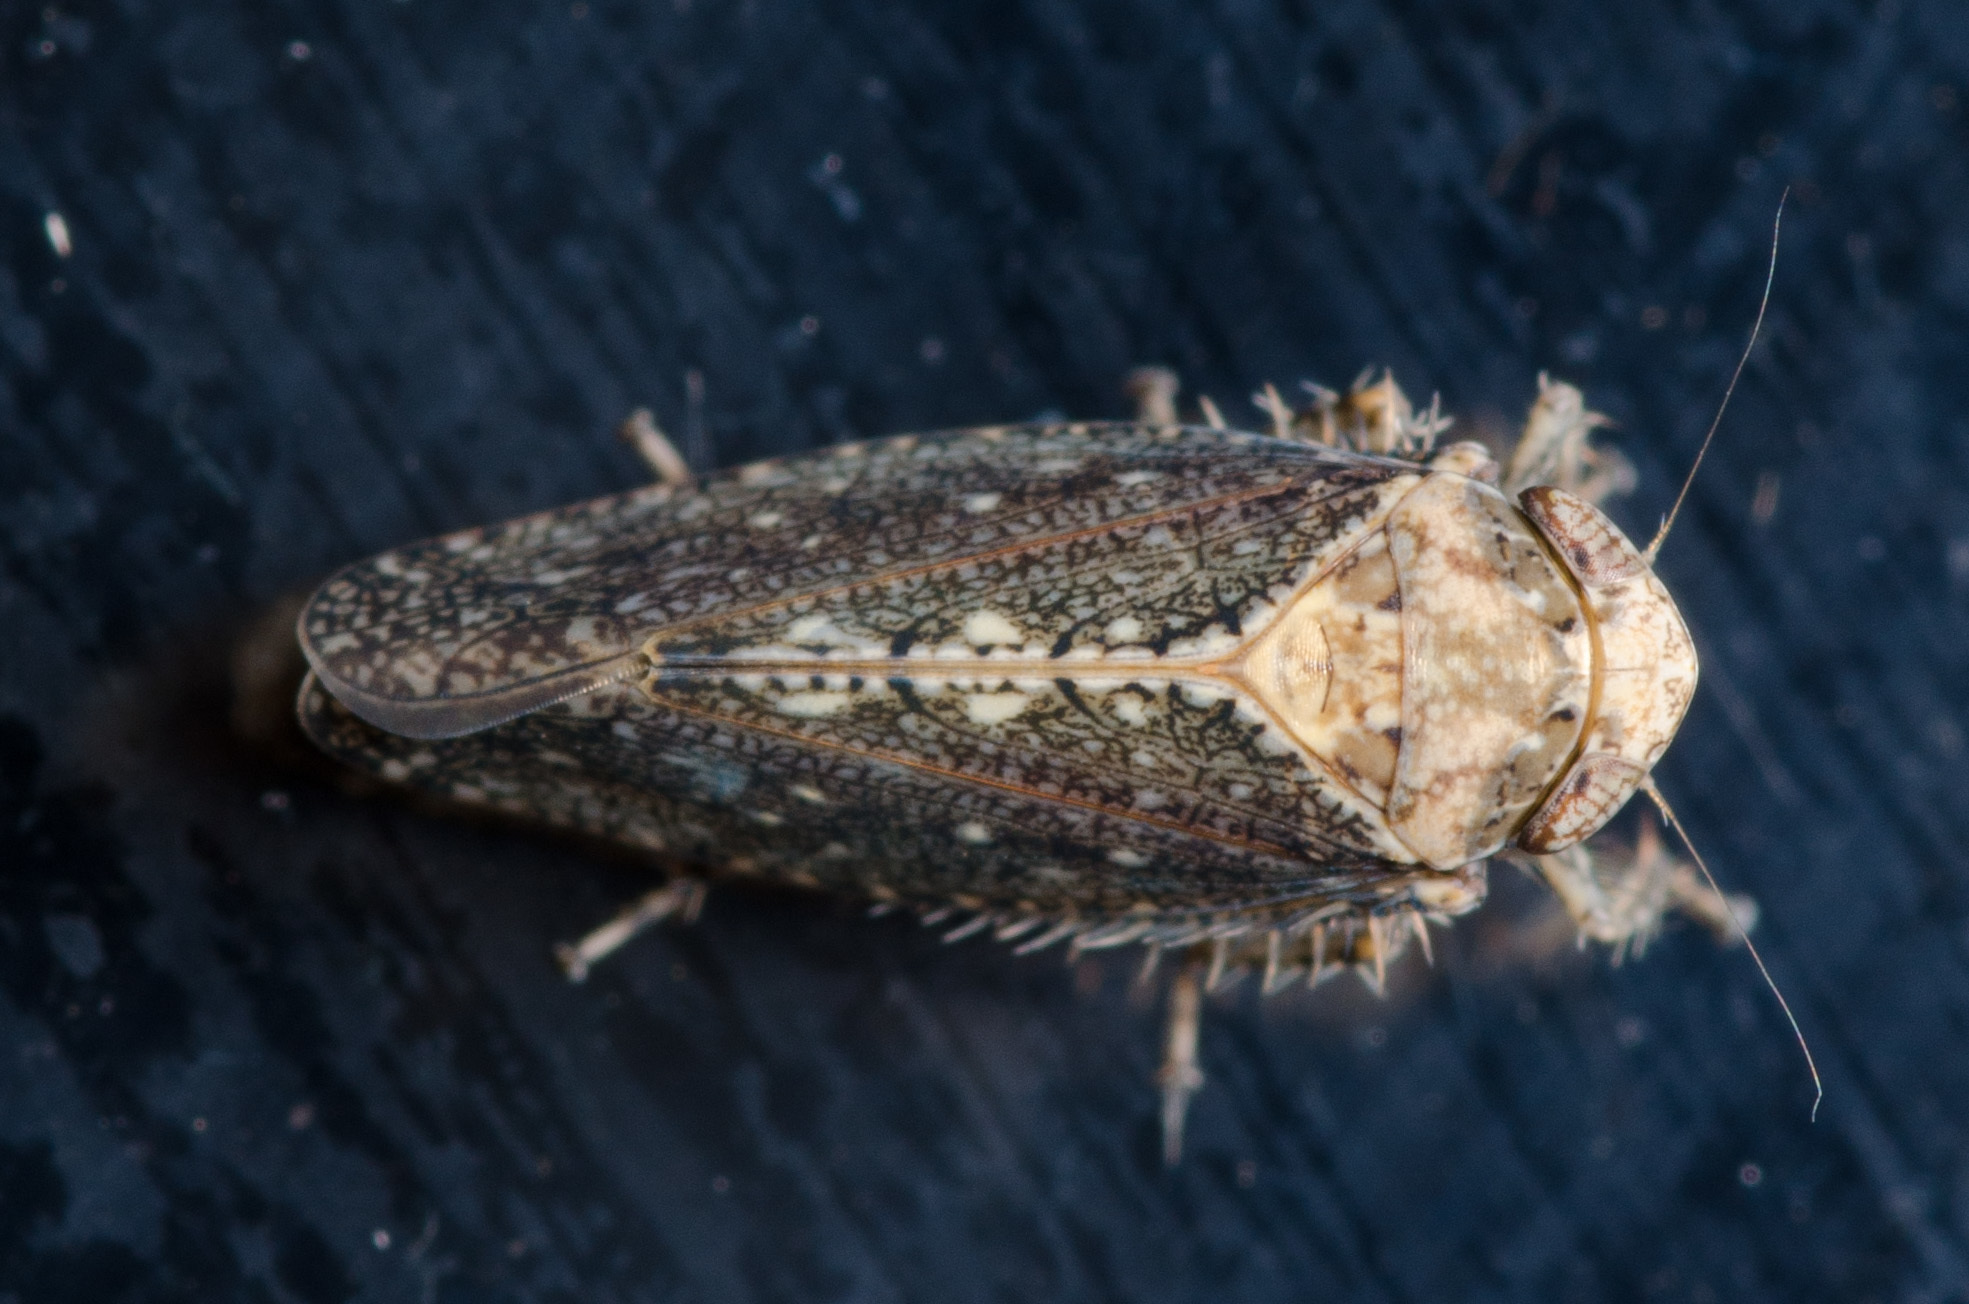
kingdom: Animalia
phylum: Arthropoda
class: Insecta
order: Hemiptera
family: Cicadellidae
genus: Excultanus
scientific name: Excultanus excultus
